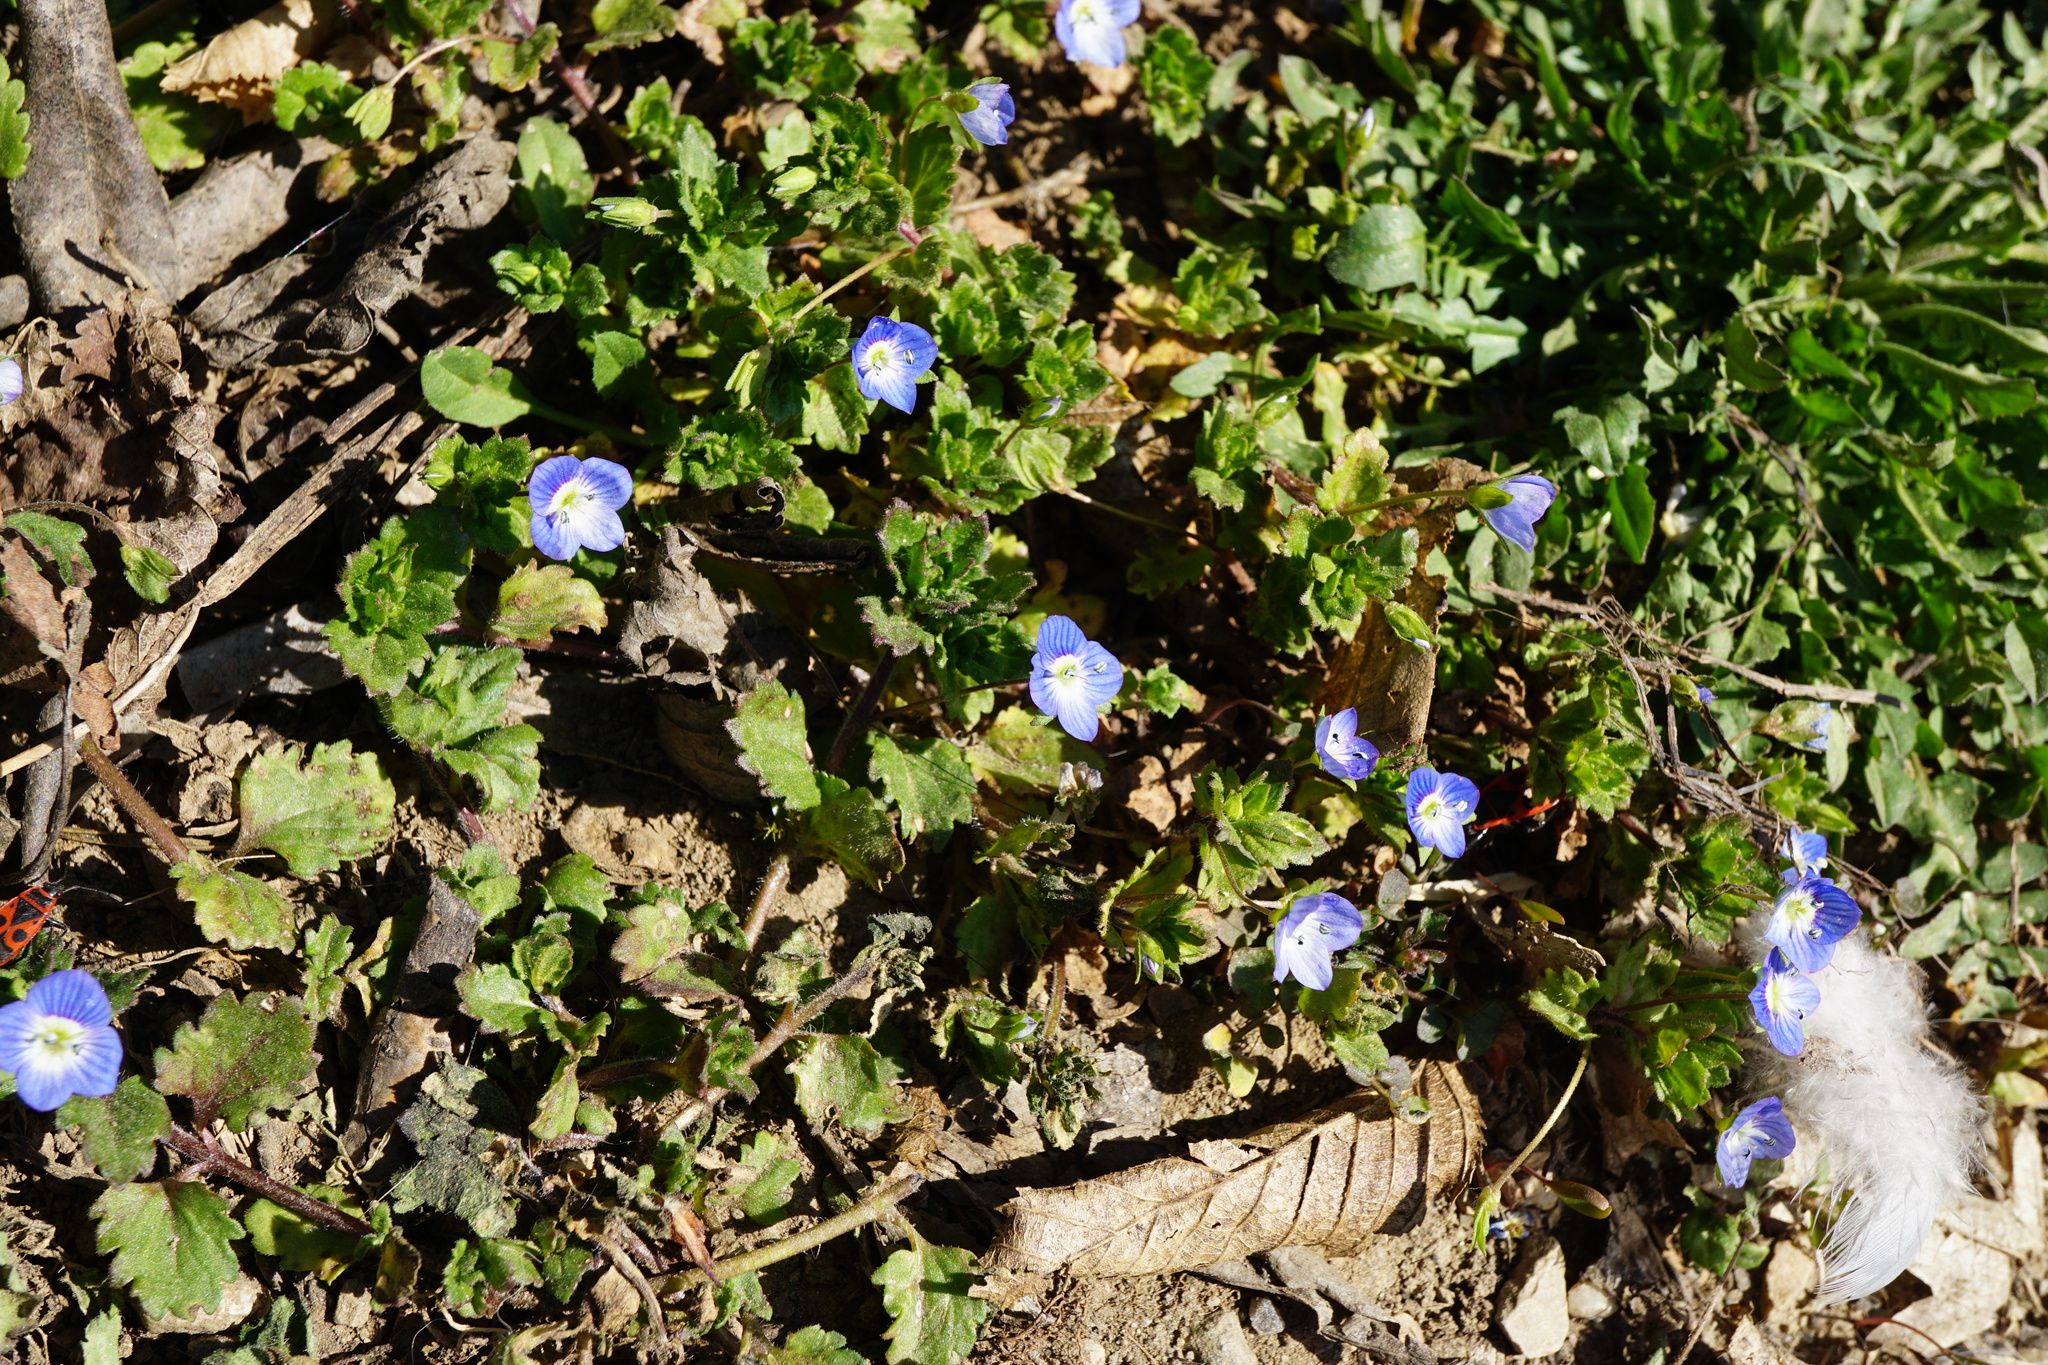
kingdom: Plantae
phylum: Tracheophyta
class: Magnoliopsida
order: Lamiales
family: Plantaginaceae
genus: Veronica
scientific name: Veronica persica
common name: Common field-speedwell
